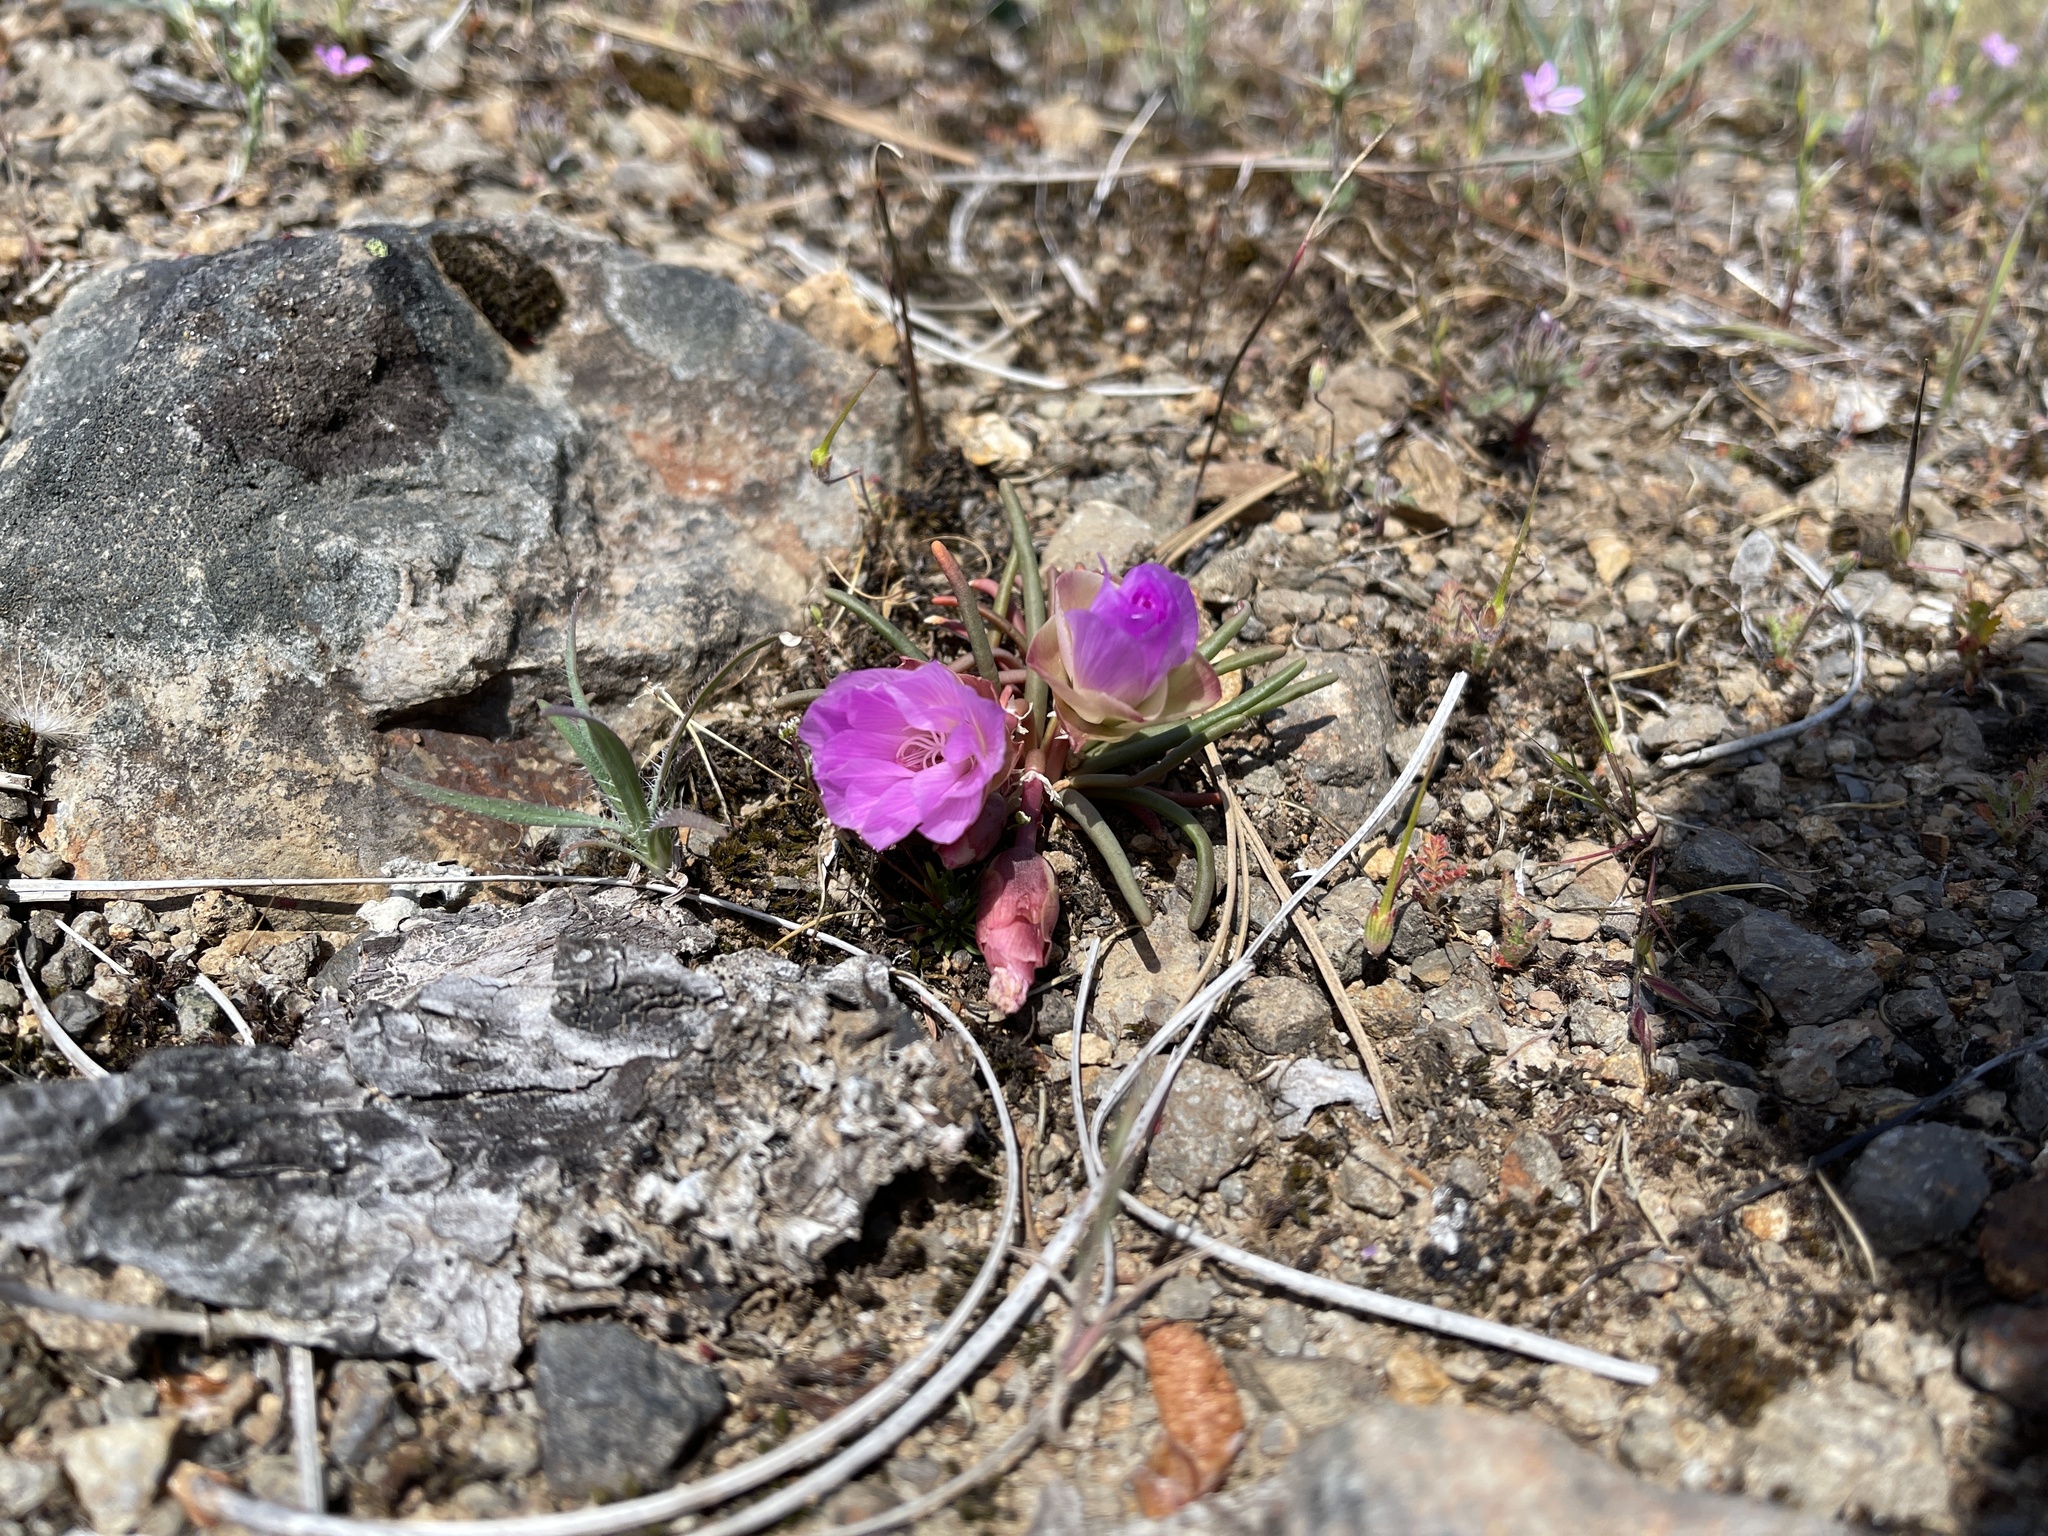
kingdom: Plantae
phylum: Tracheophyta
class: Magnoliopsida
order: Caryophyllales
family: Montiaceae
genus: Lewisia
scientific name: Lewisia rediviva
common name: Bitter-root
